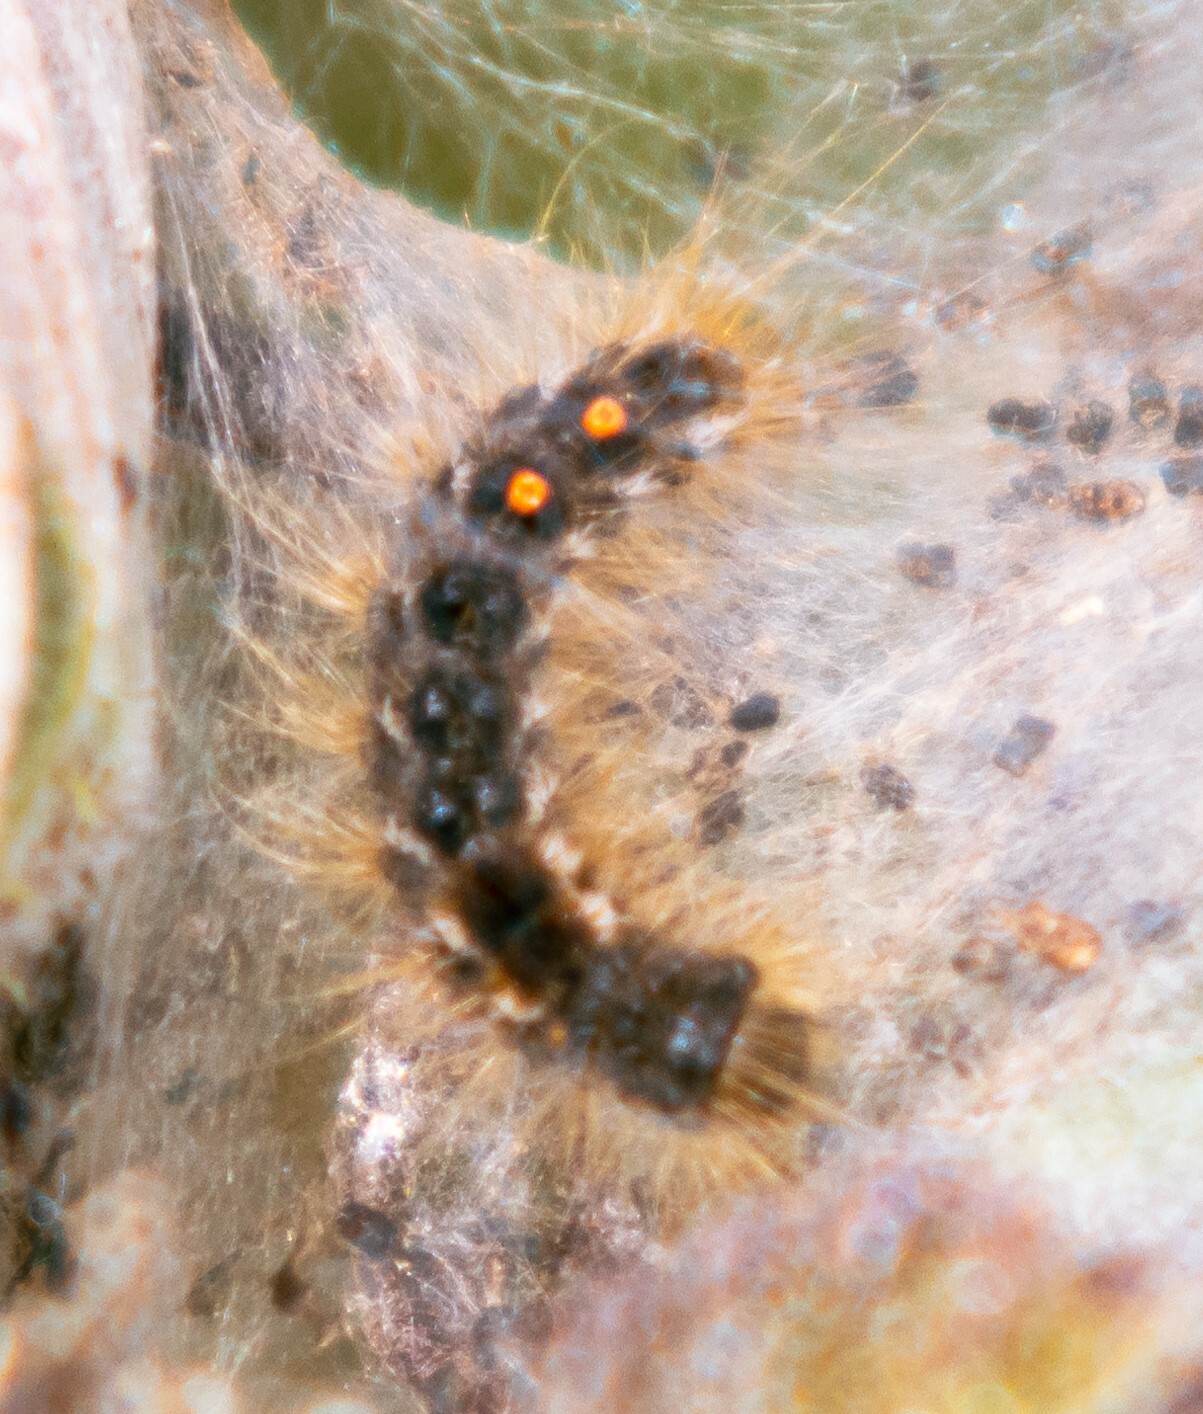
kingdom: Animalia
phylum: Arthropoda
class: Insecta
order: Lepidoptera
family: Erebidae
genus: Euproctis
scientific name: Euproctis chrysorrhoea
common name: Brown-tail
